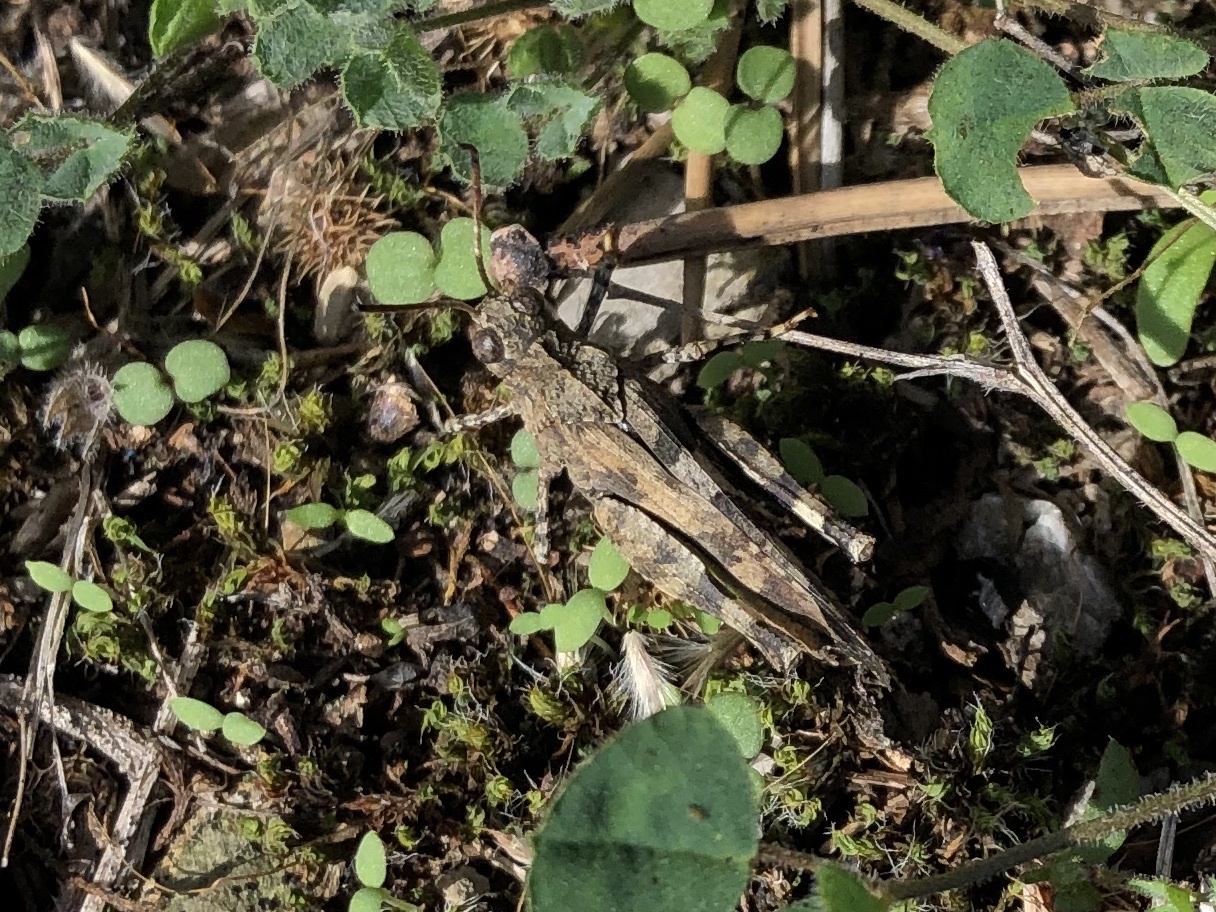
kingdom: Animalia
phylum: Arthropoda
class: Insecta
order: Orthoptera
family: Acrididae
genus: Oedipoda
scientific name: Oedipoda caerulescens
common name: Blue-winged grasshopper
